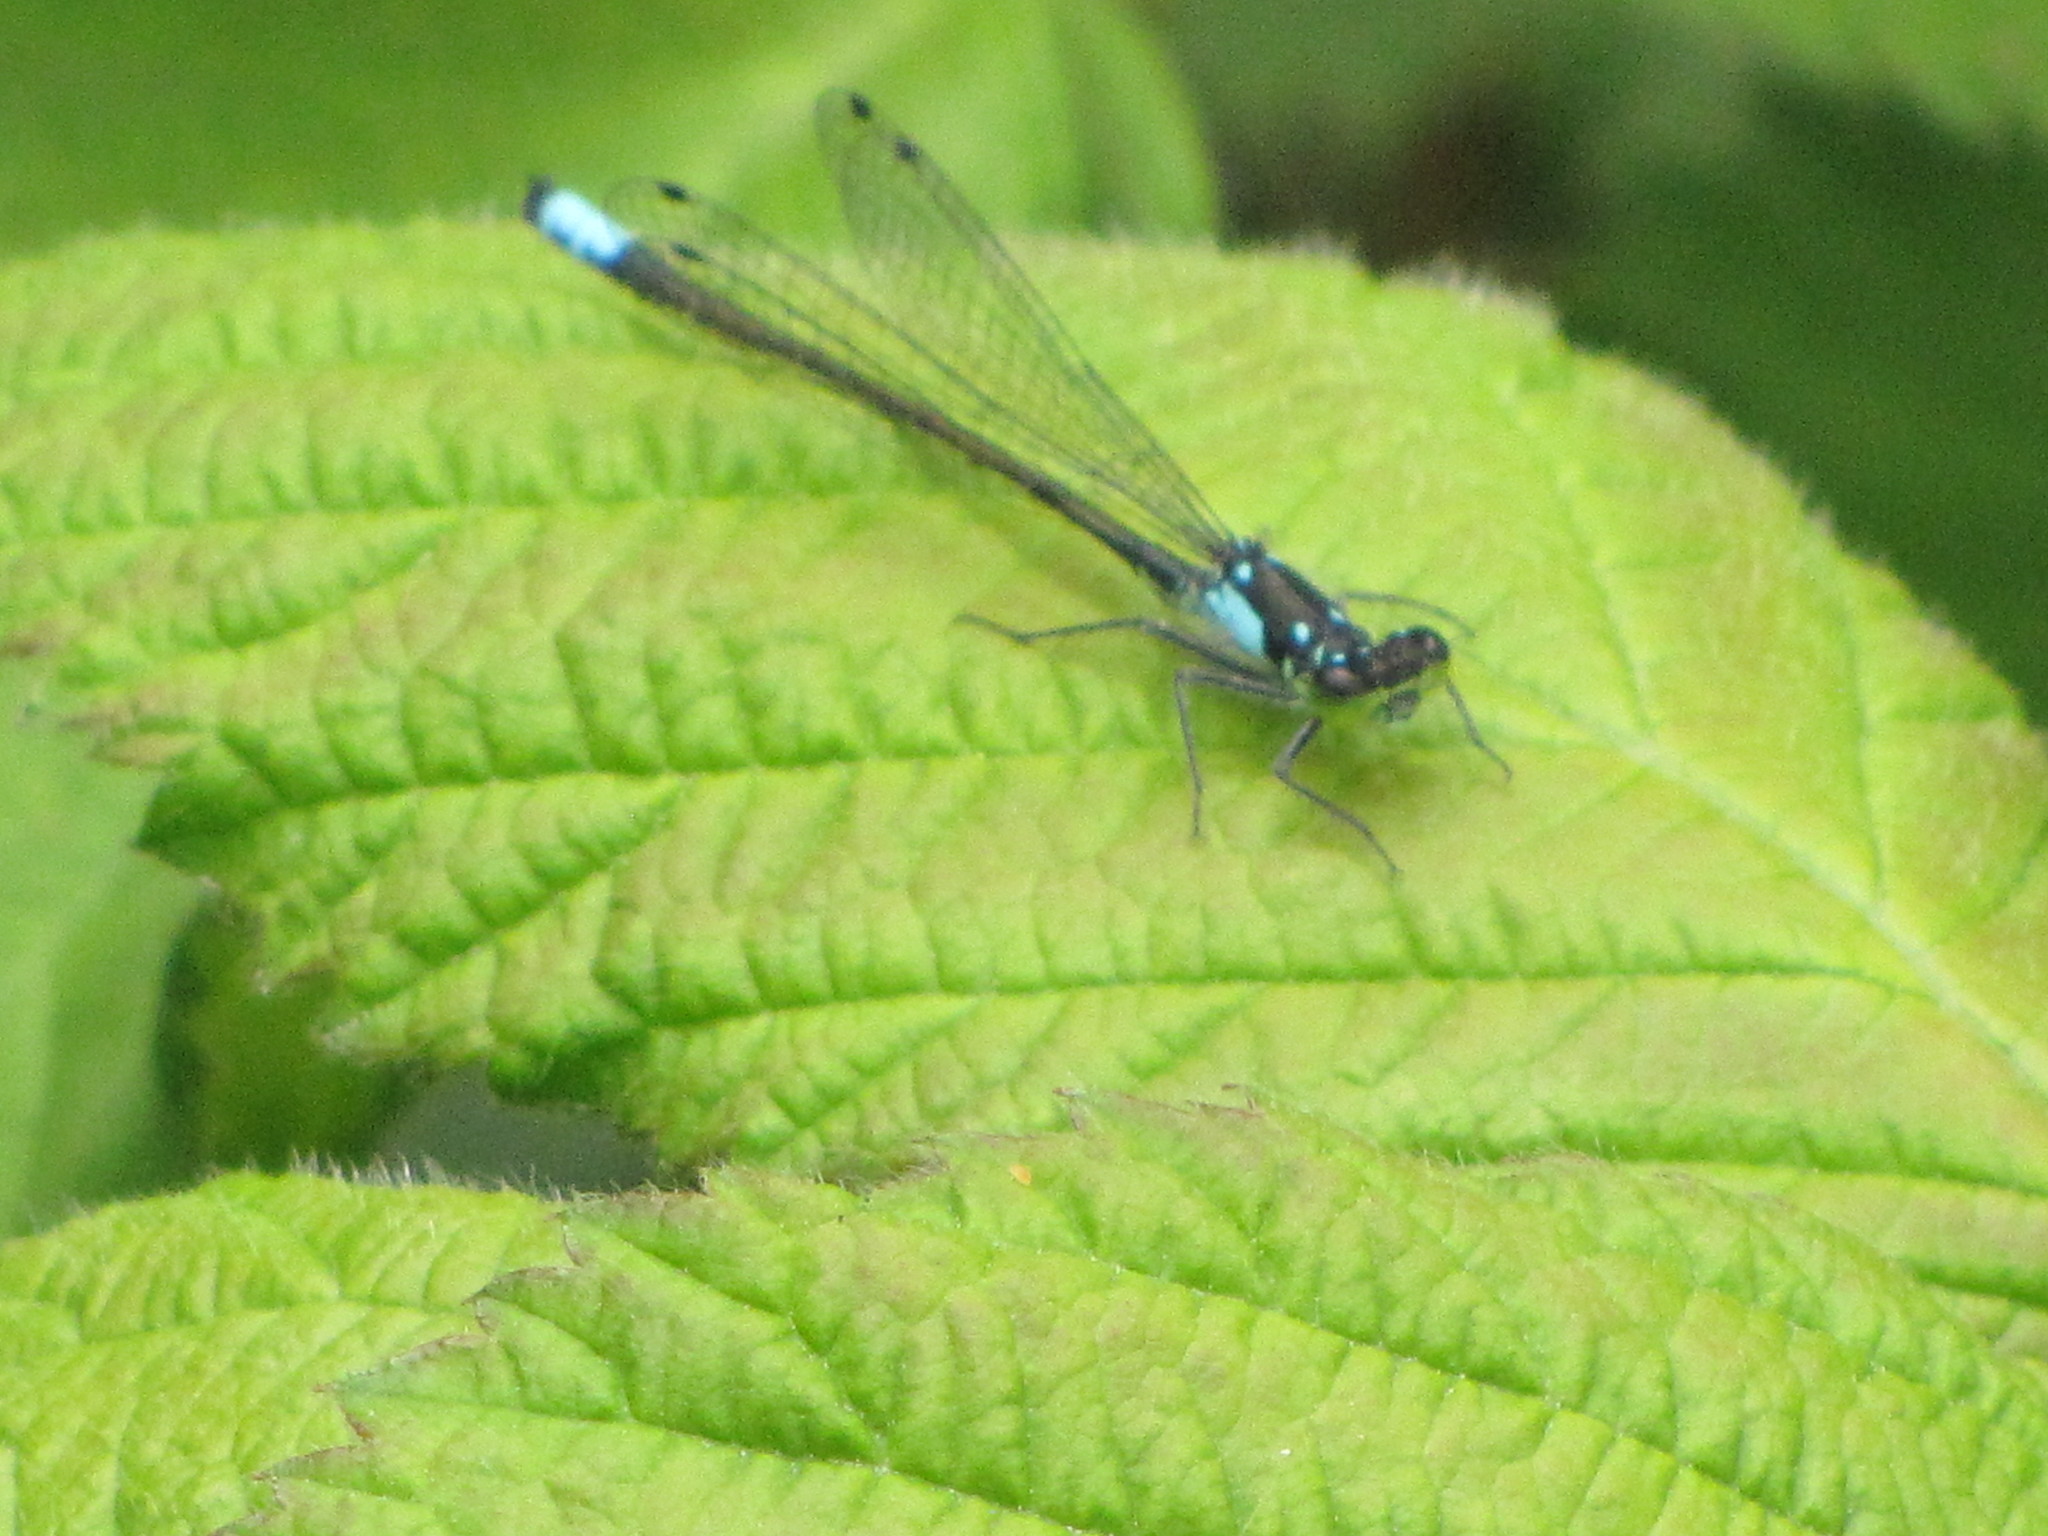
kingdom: Animalia
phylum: Arthropoda
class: Insecta
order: Odonata
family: Coenagrionidae
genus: Ischnura
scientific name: Ischnura cervula
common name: Pacific forktail
